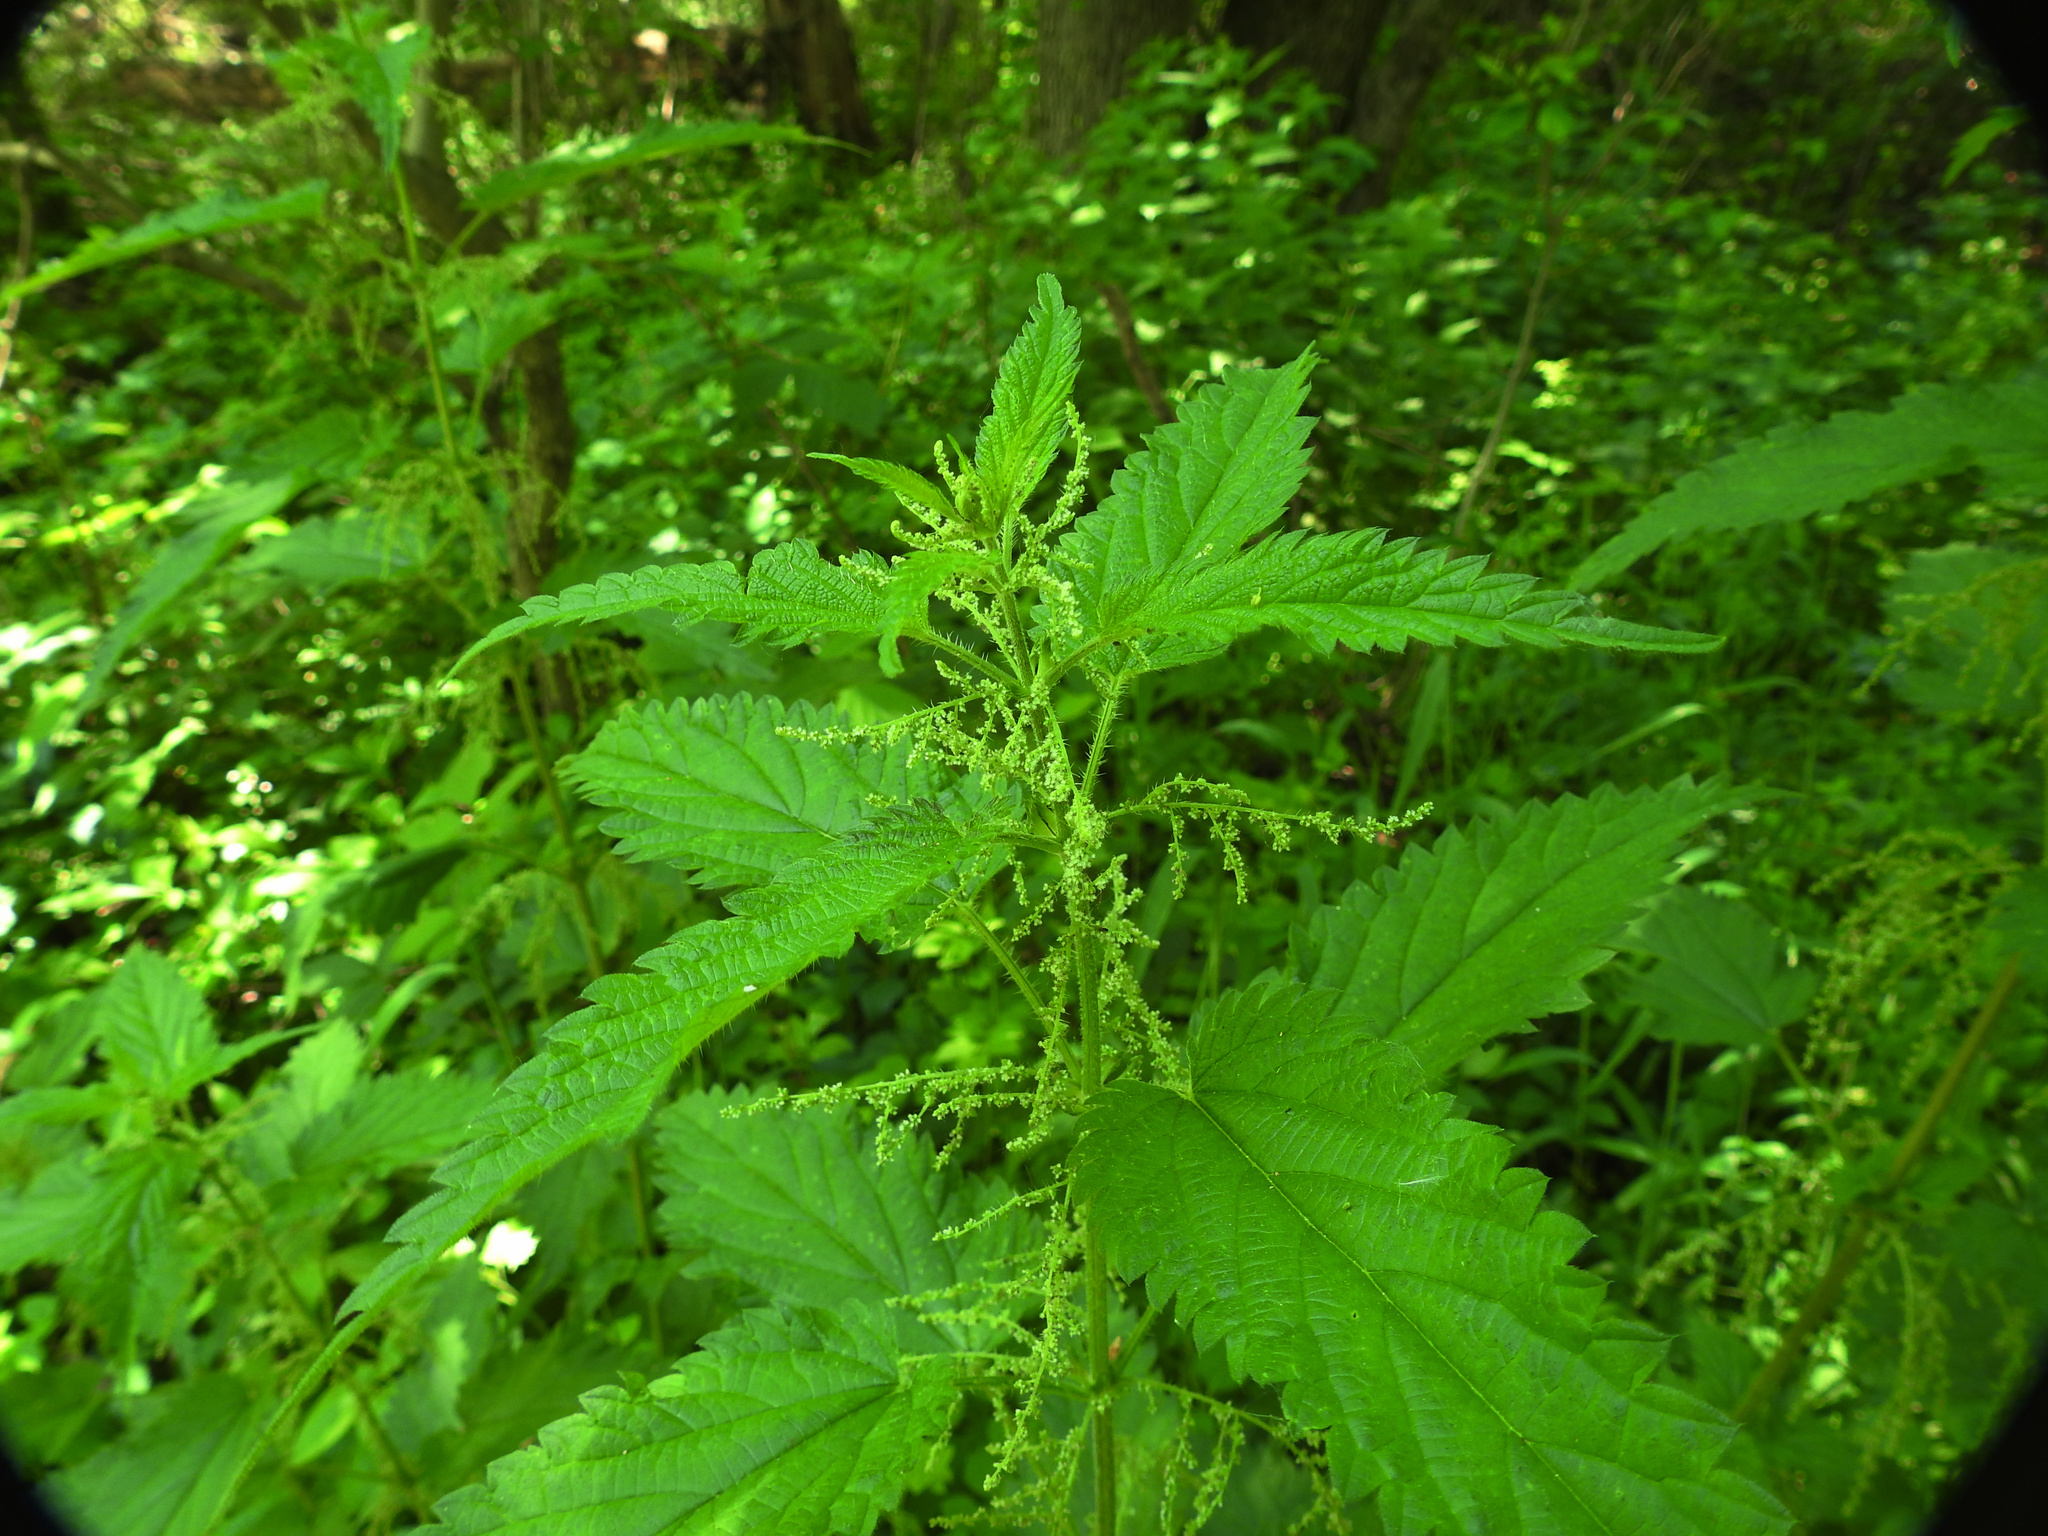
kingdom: Plantae
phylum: Tracheophyta
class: Magnoliopsida
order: Rosales
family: Urticaceae
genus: Urtica
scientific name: Urtica dioica
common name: Common nettle
